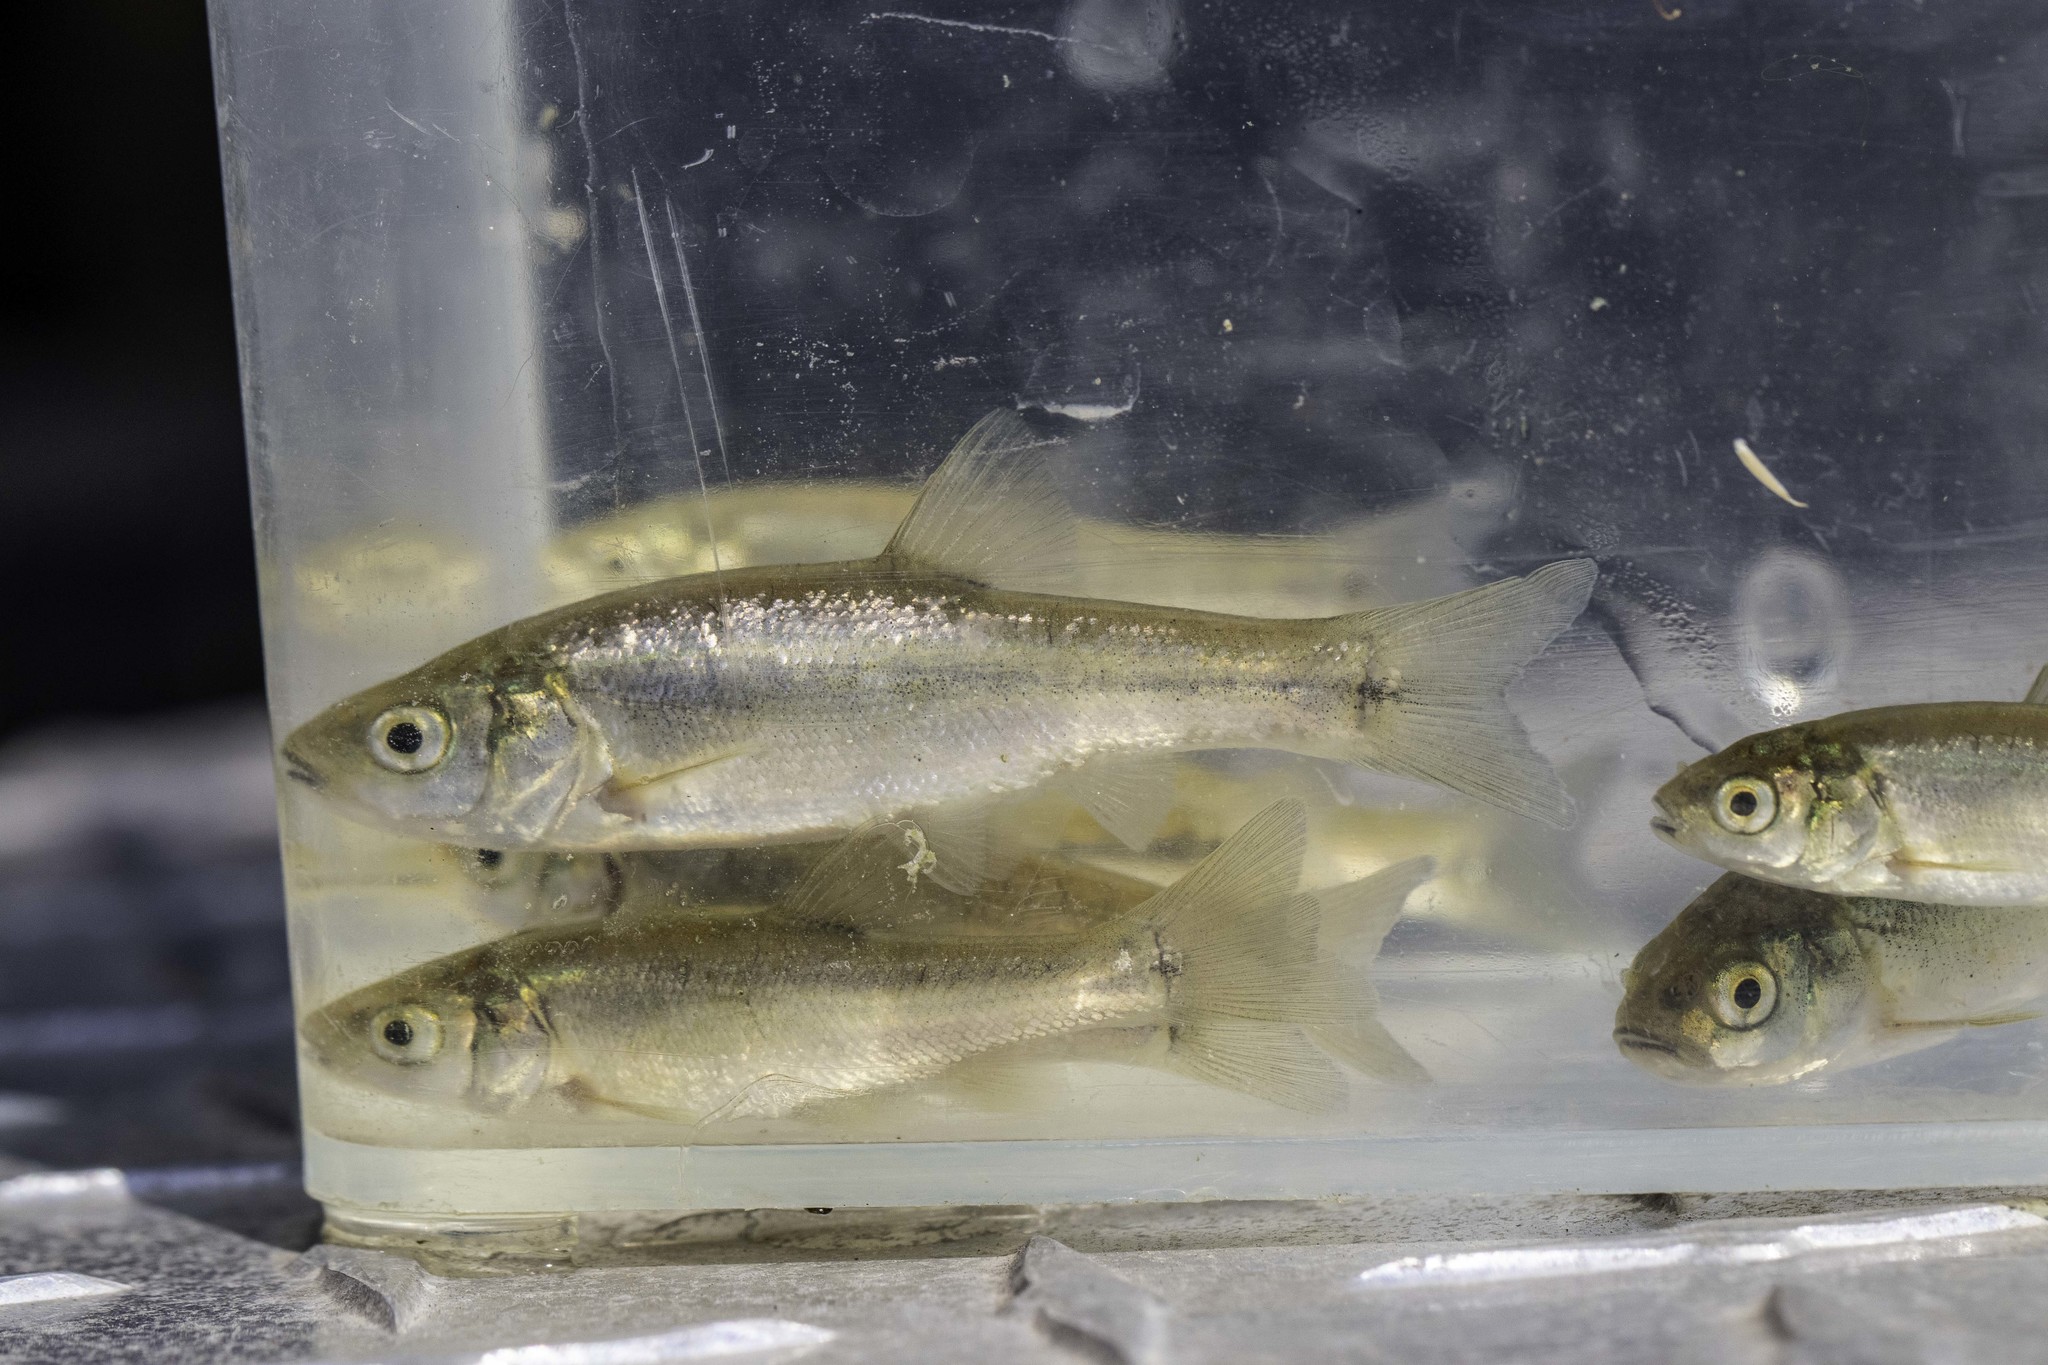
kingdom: Animalia
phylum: Chordata
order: Cypriniformes
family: Cyprinidae
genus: Gila
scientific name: Gila orcuttii
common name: Arroyo chub
